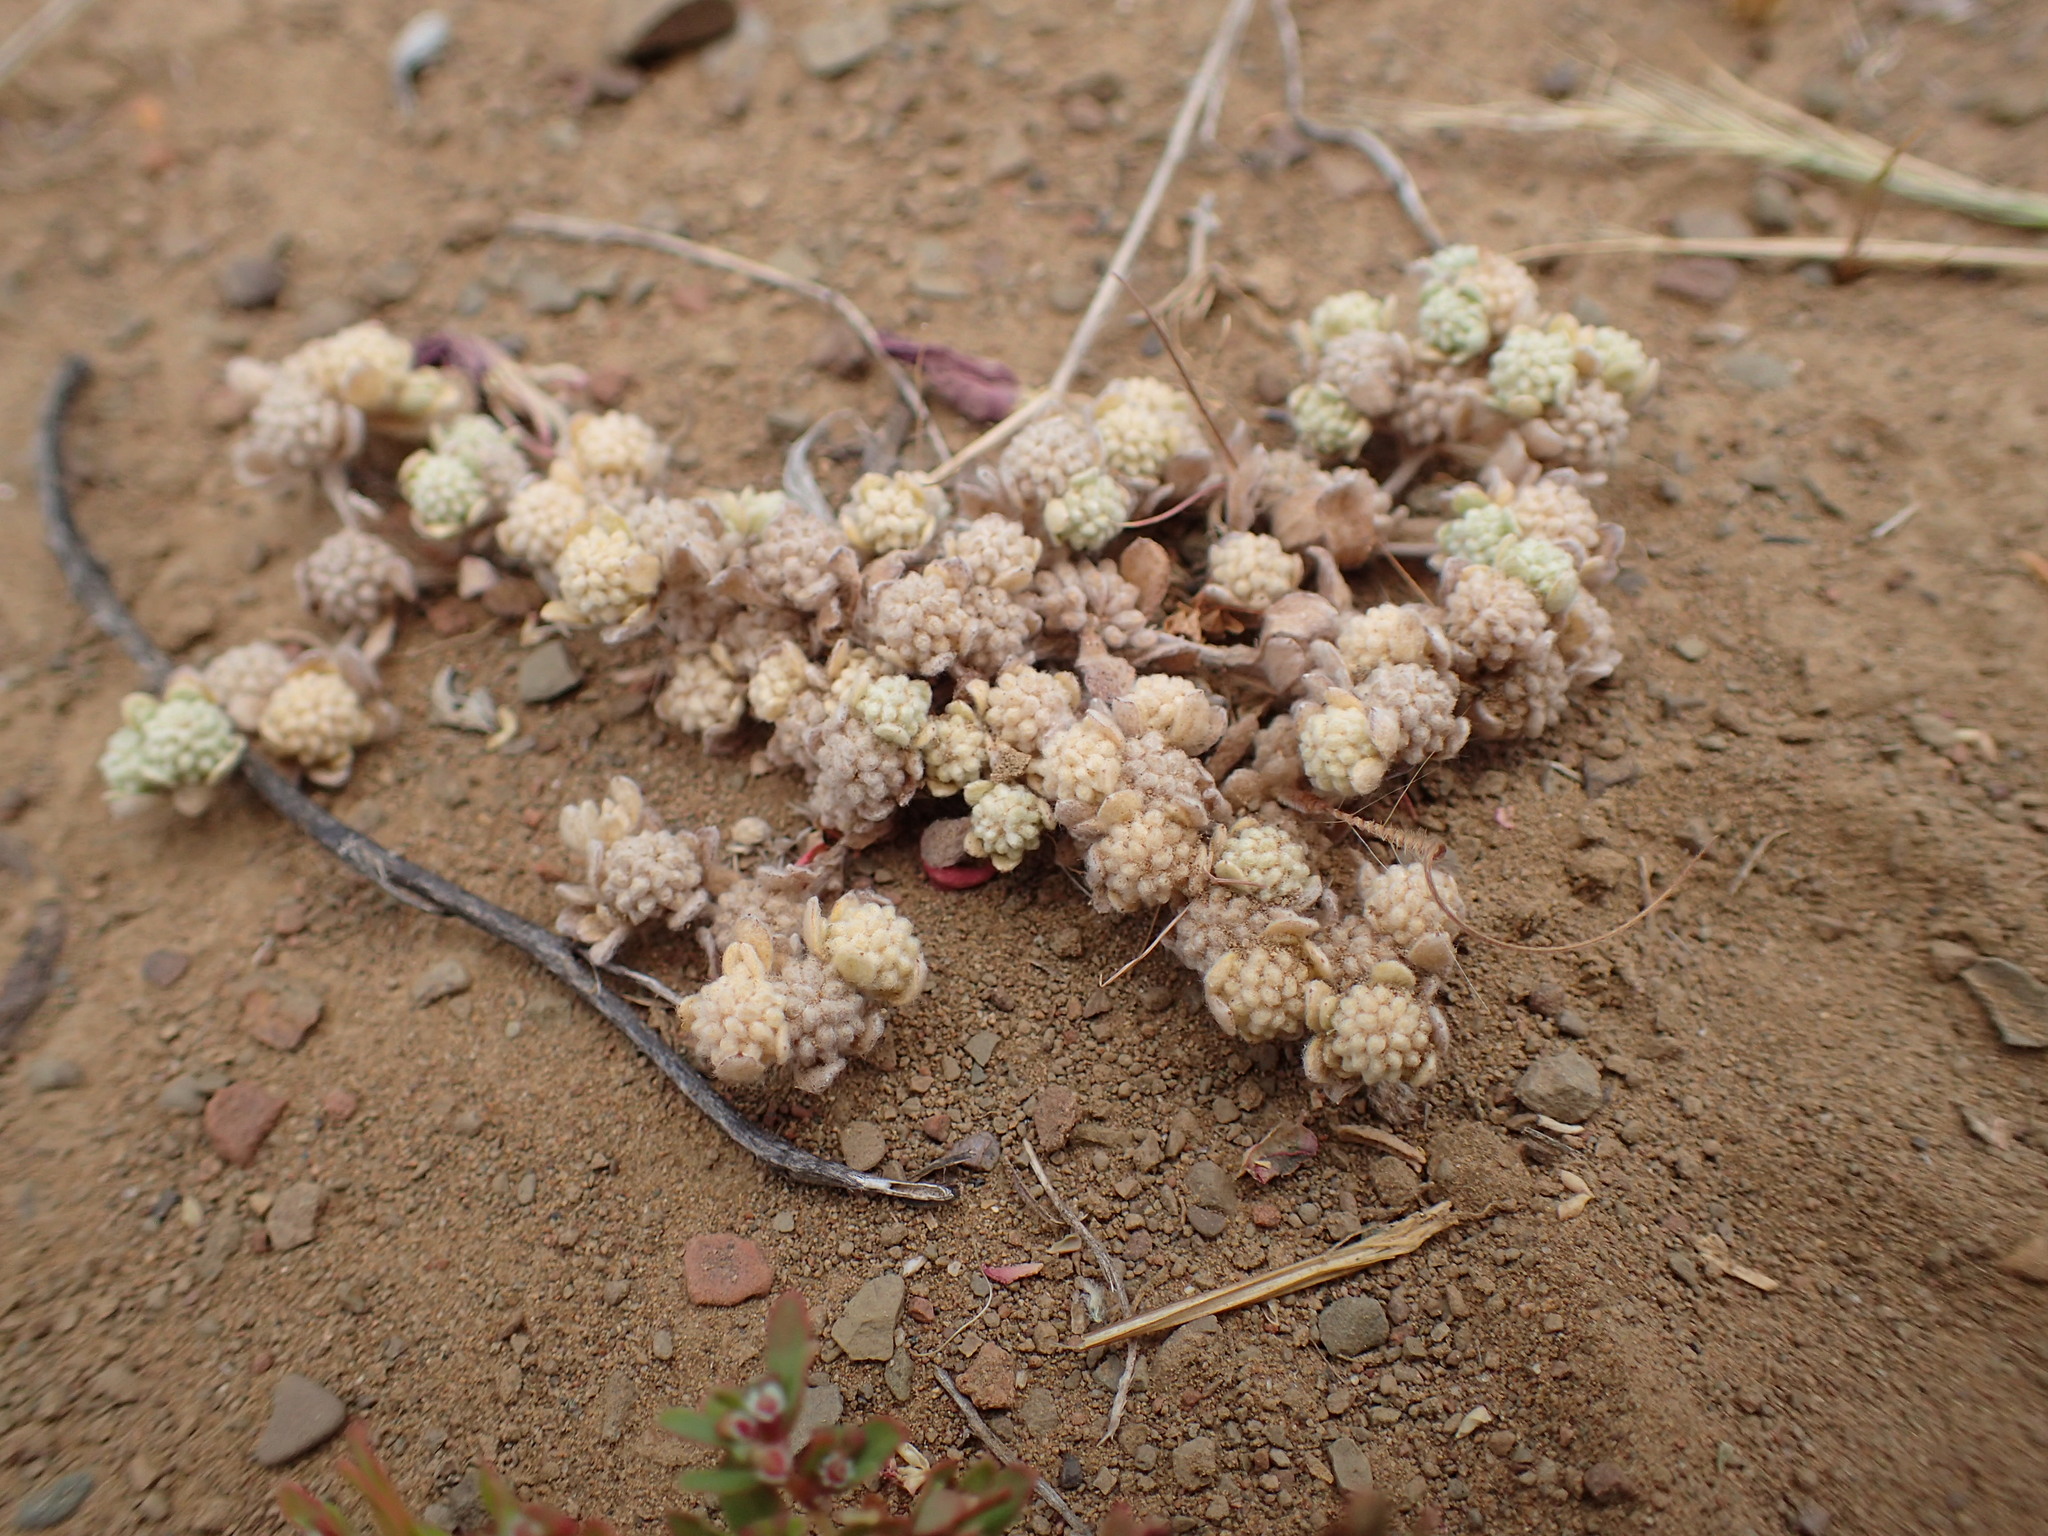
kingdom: Plantae
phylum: Tracheophyta
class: Magnoliopsida
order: Asterales
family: Asteraceae
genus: Psilocarphus
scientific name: Psilocarphus tenellus
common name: Slender woolly-marbles
